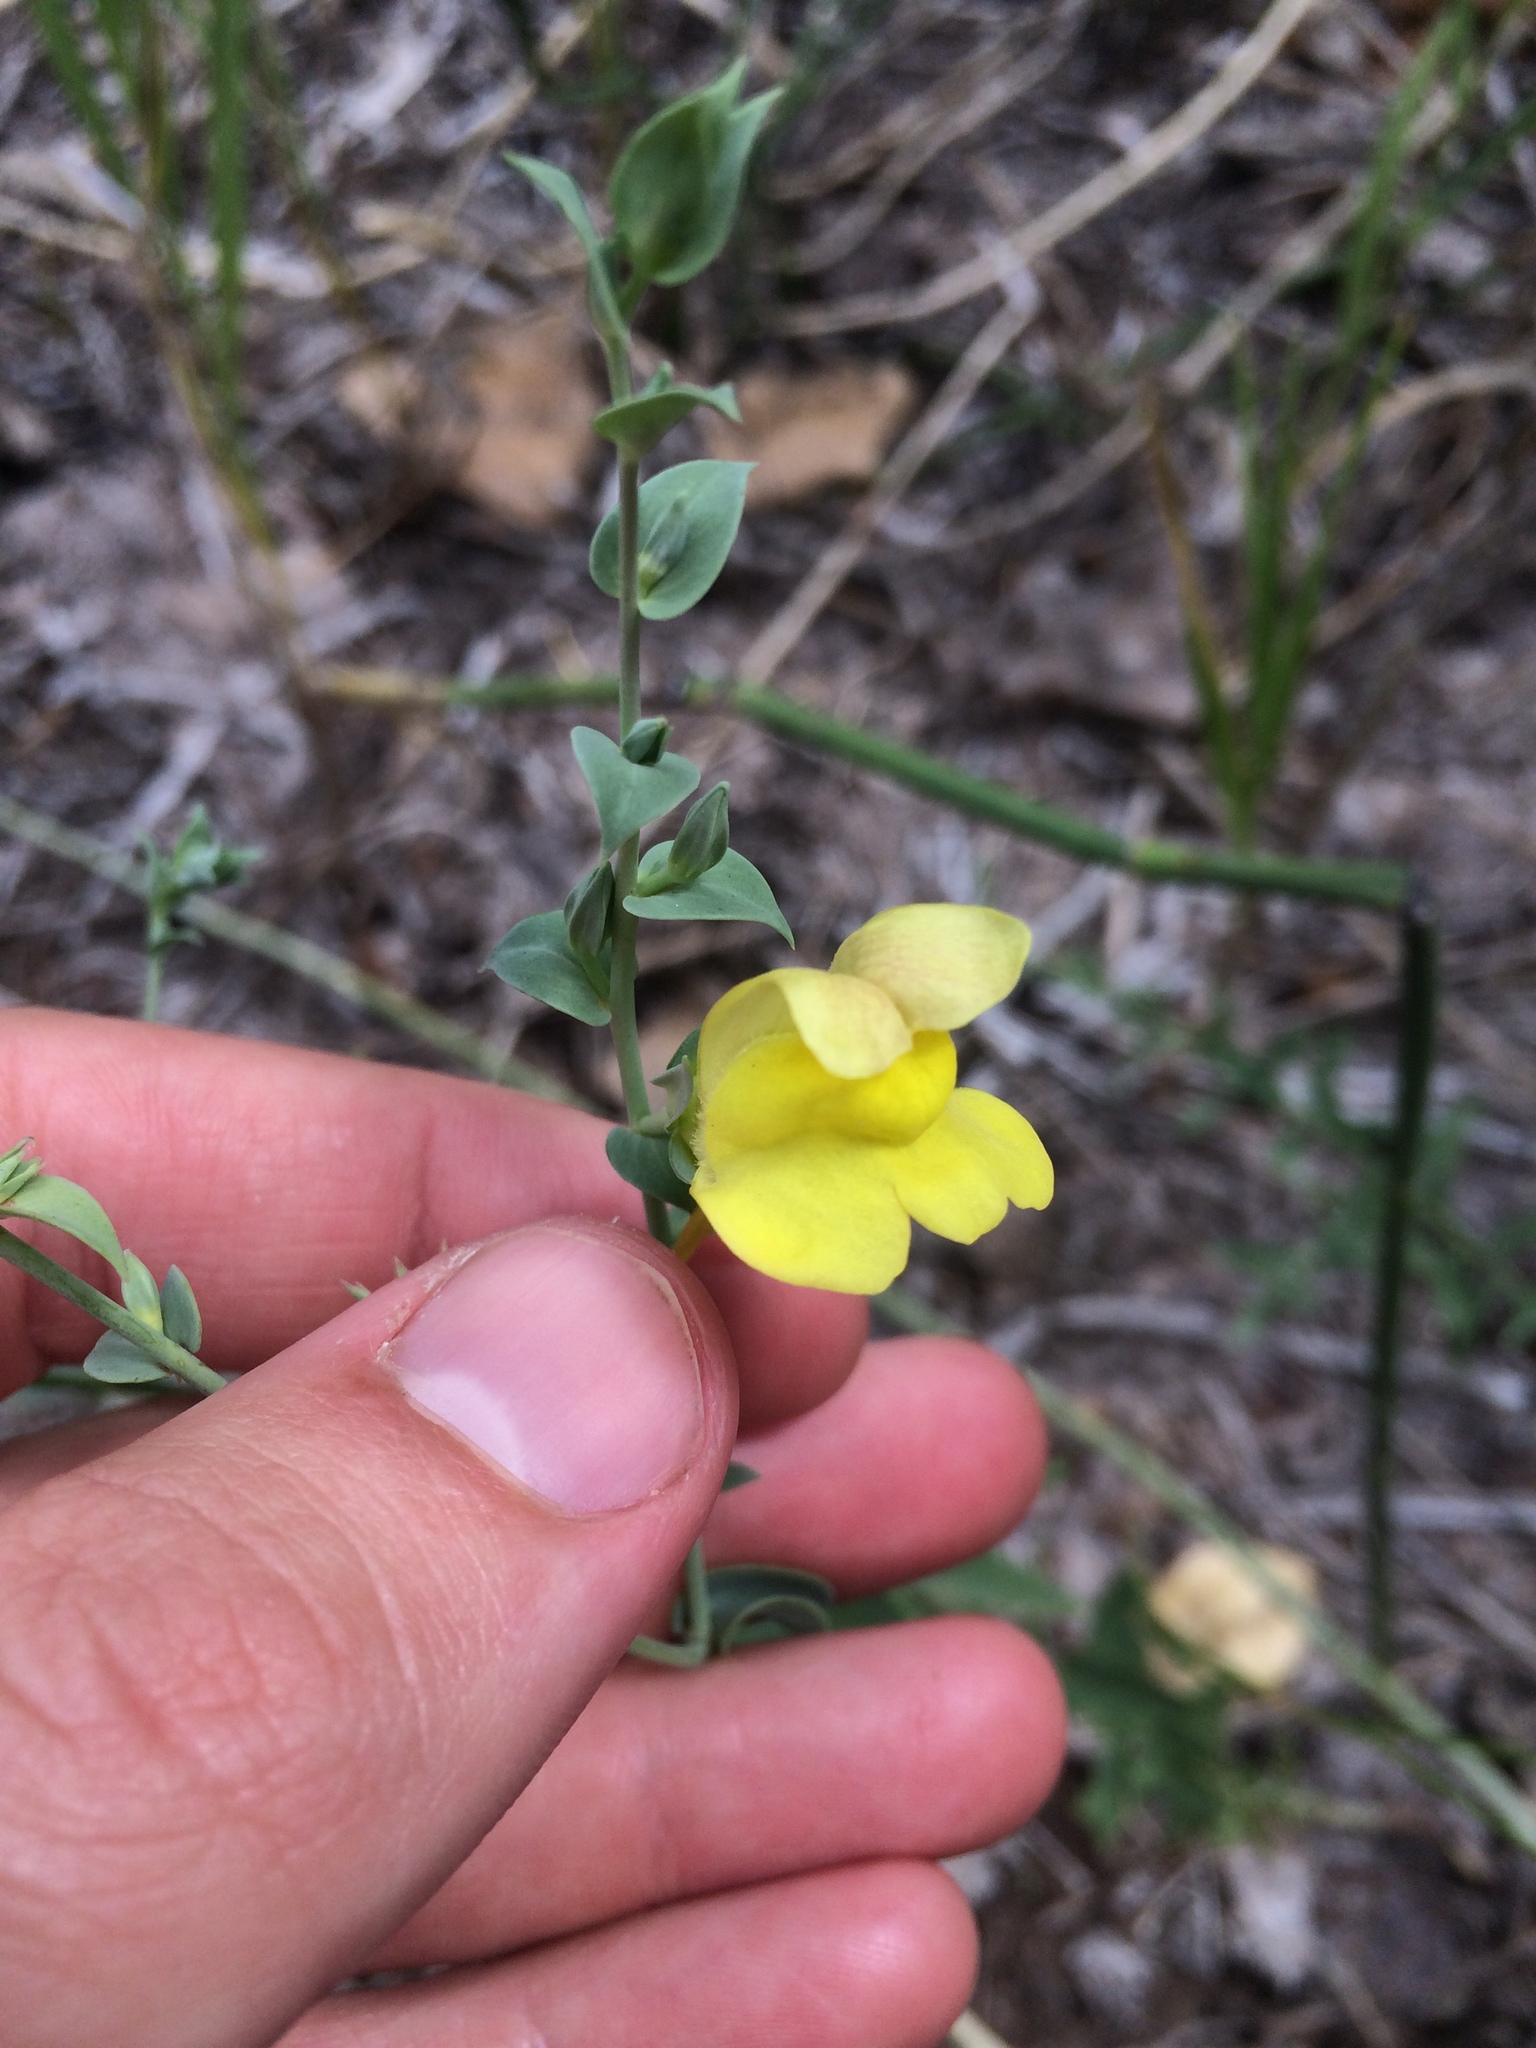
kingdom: Plantae
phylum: Tracheophyta
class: Magnoliopsida
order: Lamiales
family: Plantaginaceae
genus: Linaria
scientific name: Linaria dalmatica
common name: Dalmatian toadflax
